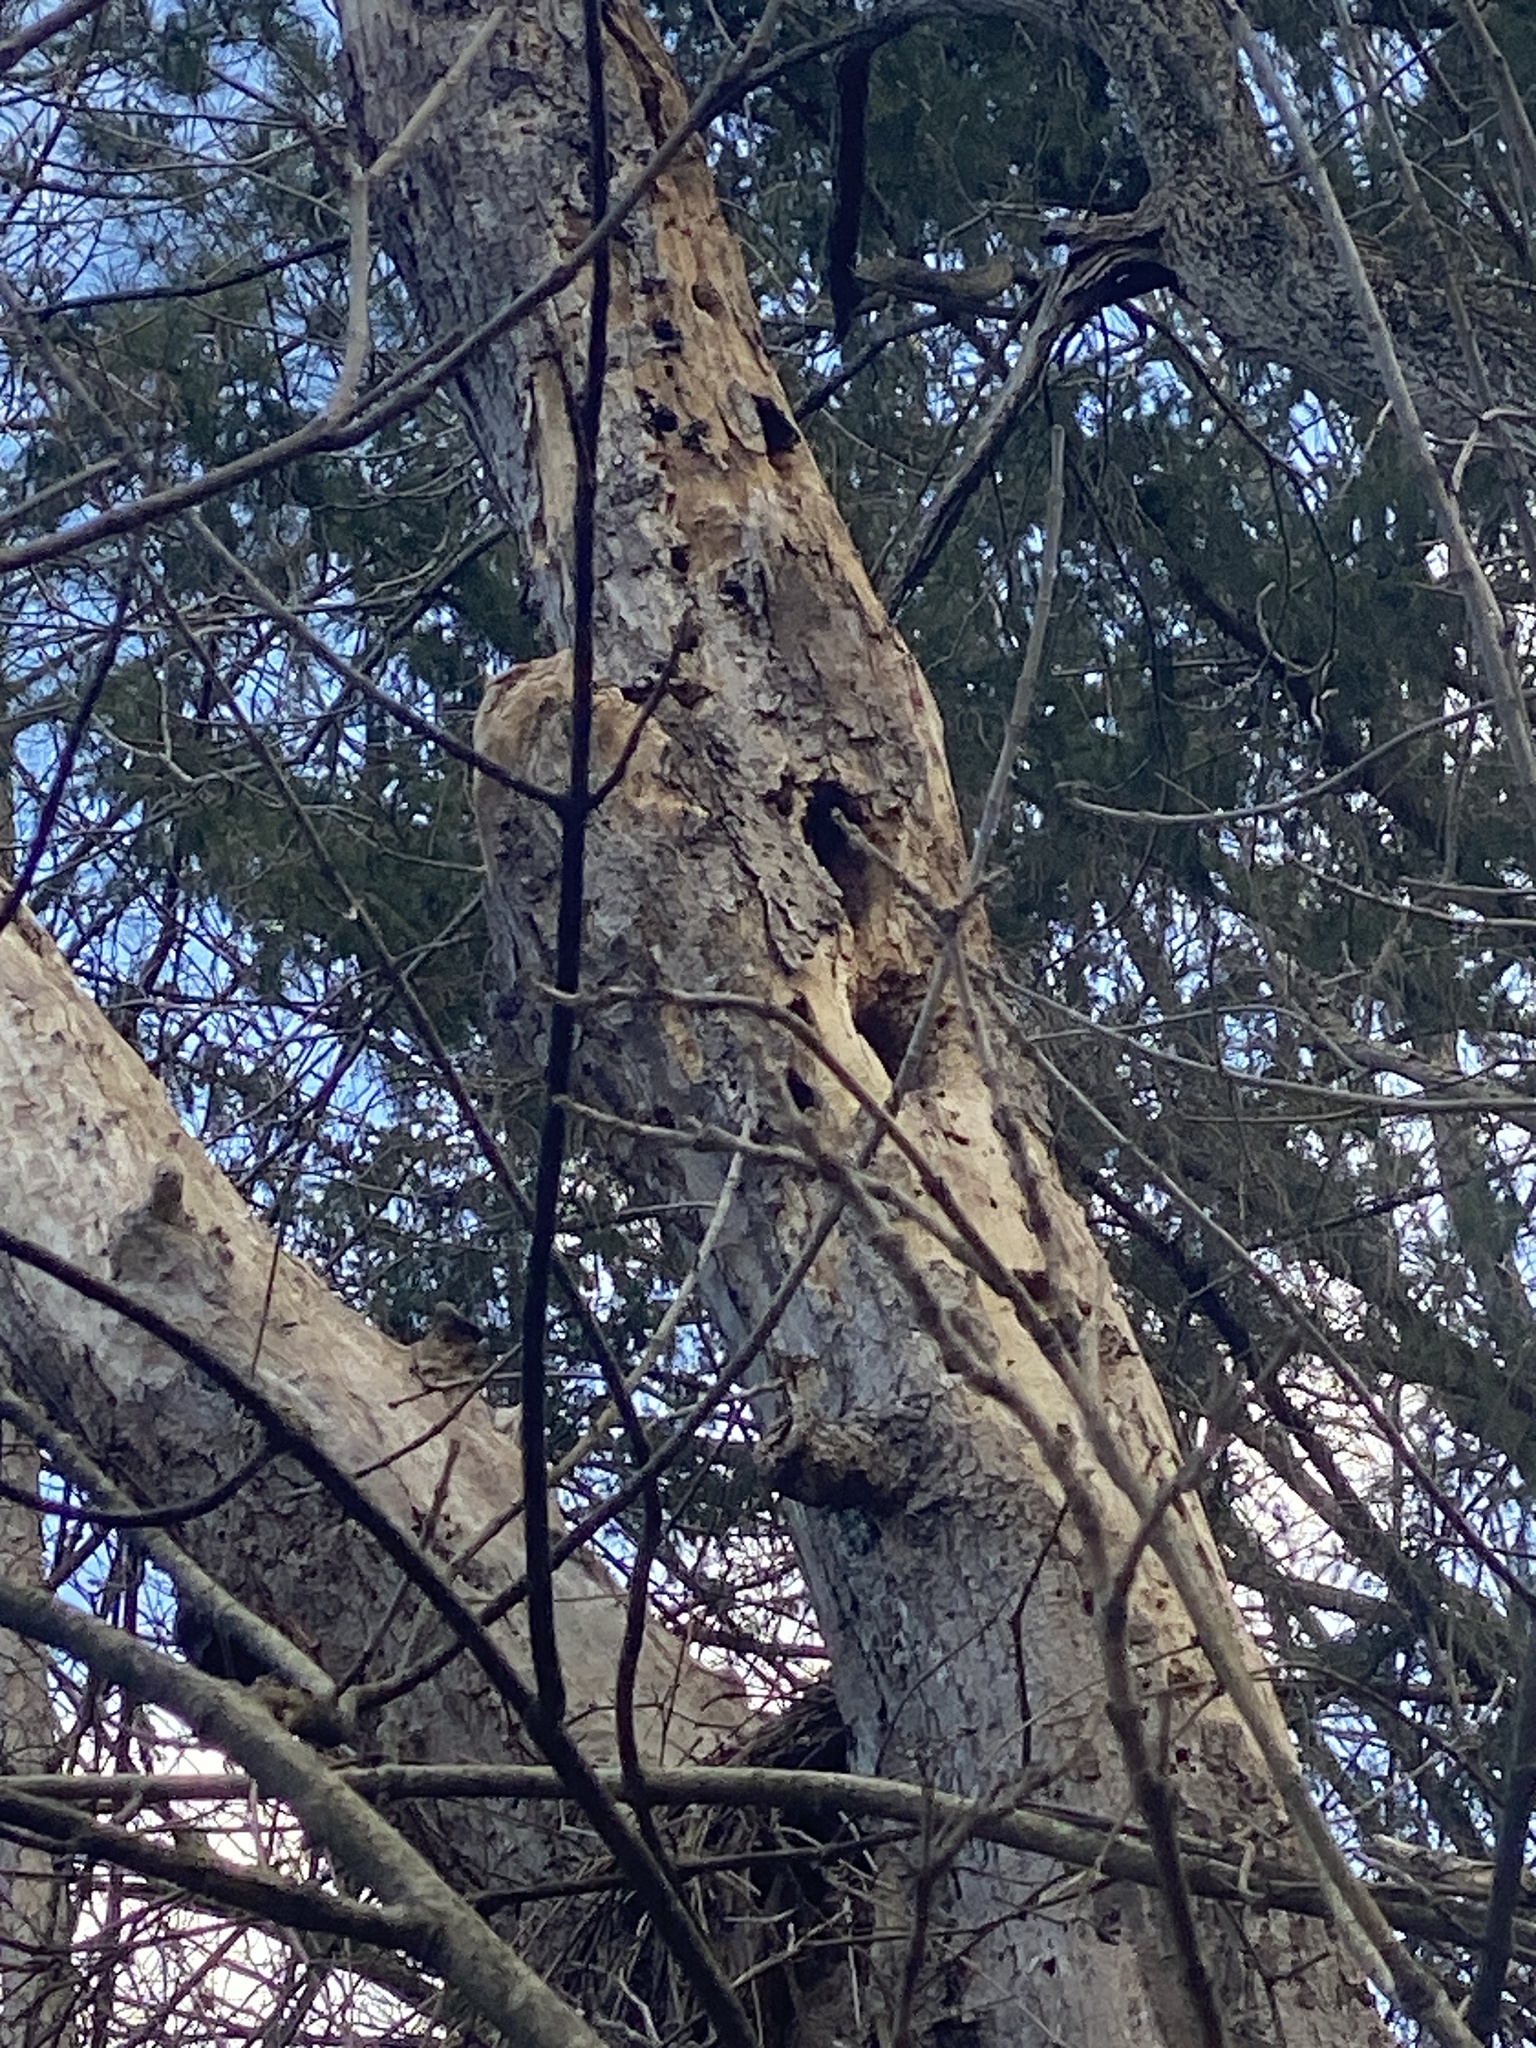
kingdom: Animalia
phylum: Chordata
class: Aves
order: Piciformes
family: Picidae
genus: Dryocopus
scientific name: Dryocopus pileatus
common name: Pileated woodpecker
